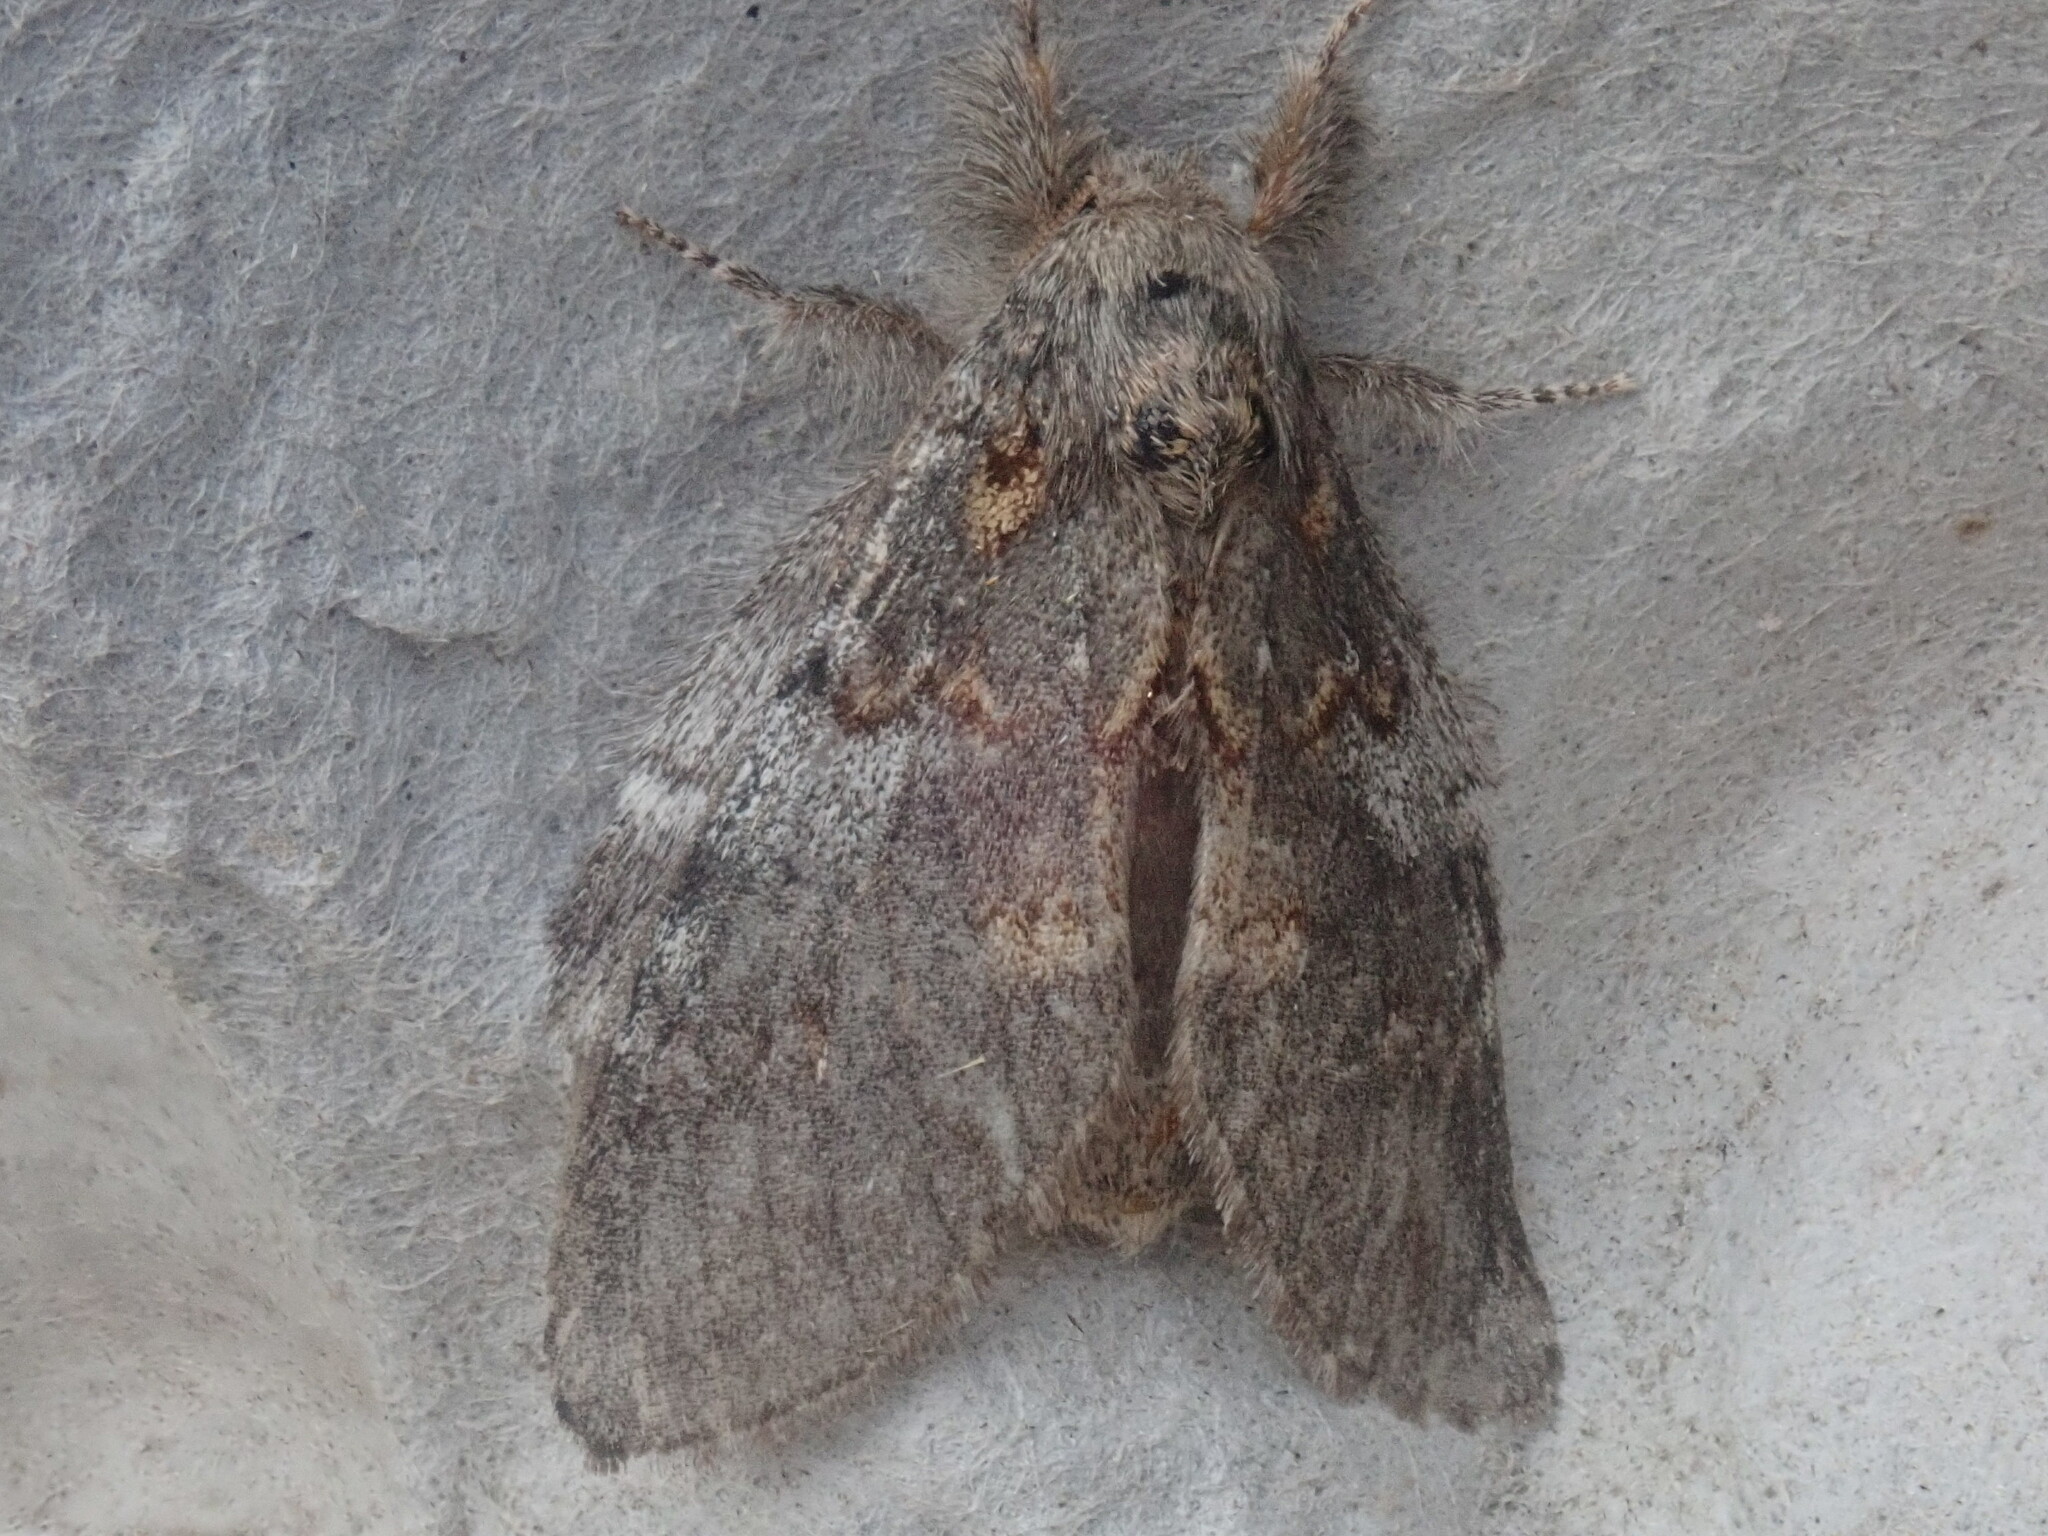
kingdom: Animalia
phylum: Arthropoda
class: Insecta
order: Lepidoptera
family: Notodontidae
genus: Peridea
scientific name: Peridea angulosa
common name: Angulose prominent
